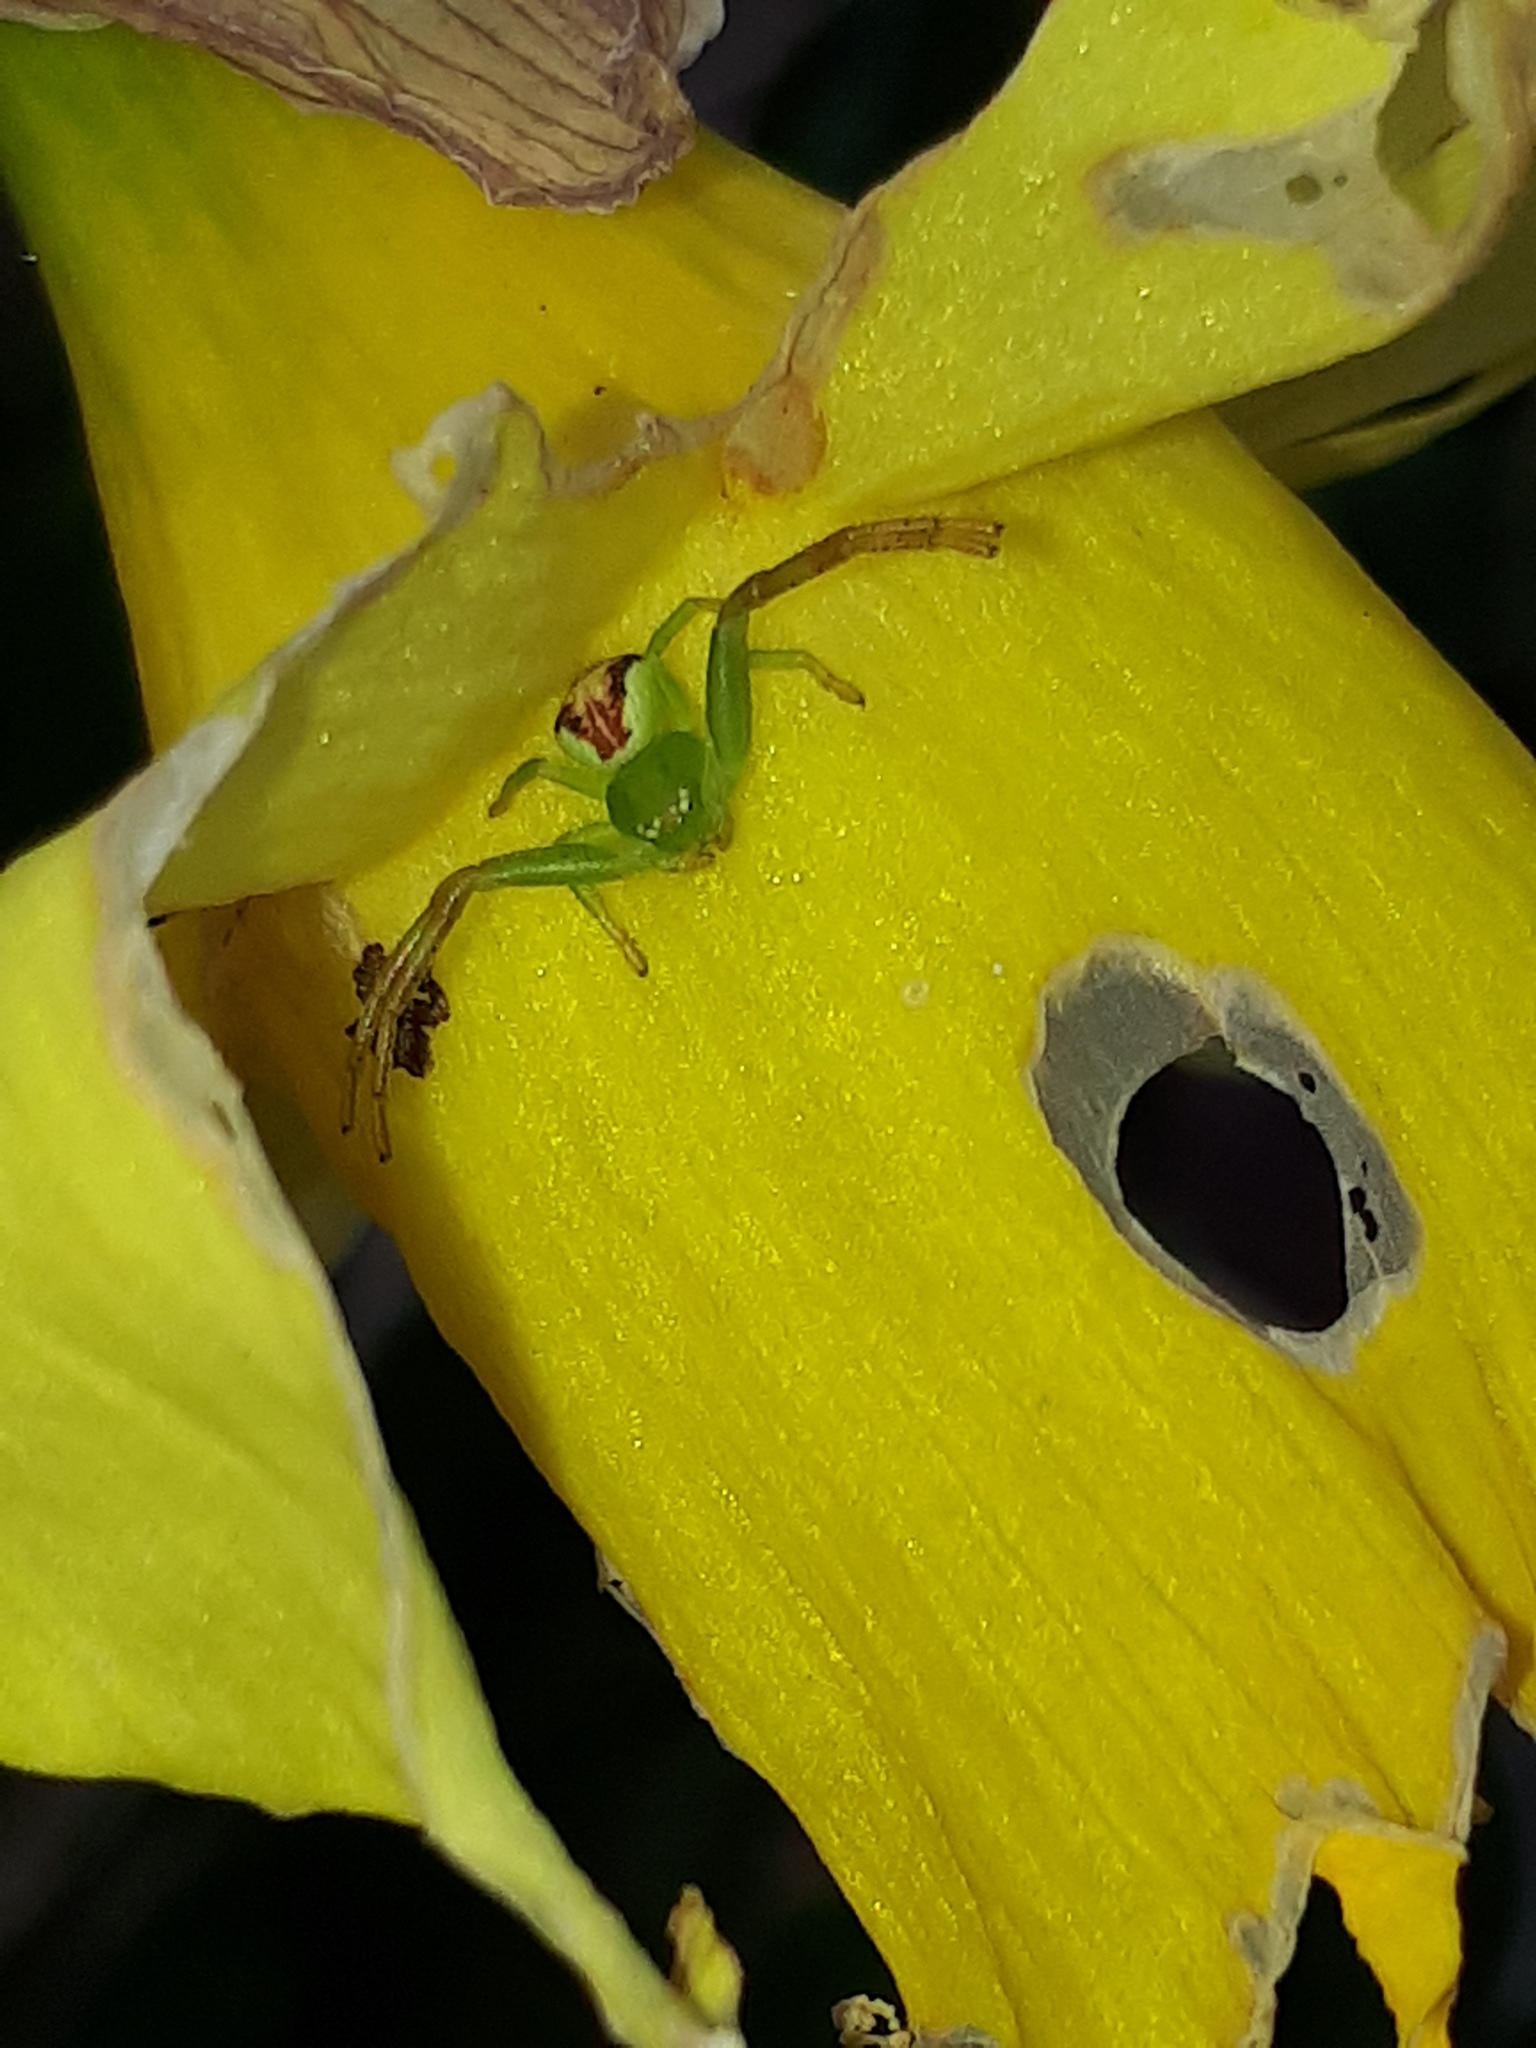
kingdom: Animalia
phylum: Arthropoda
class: Arachnida
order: Araneae
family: Thomisidae
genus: Ebrechtella
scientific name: Ebrechtella tricuspidata
